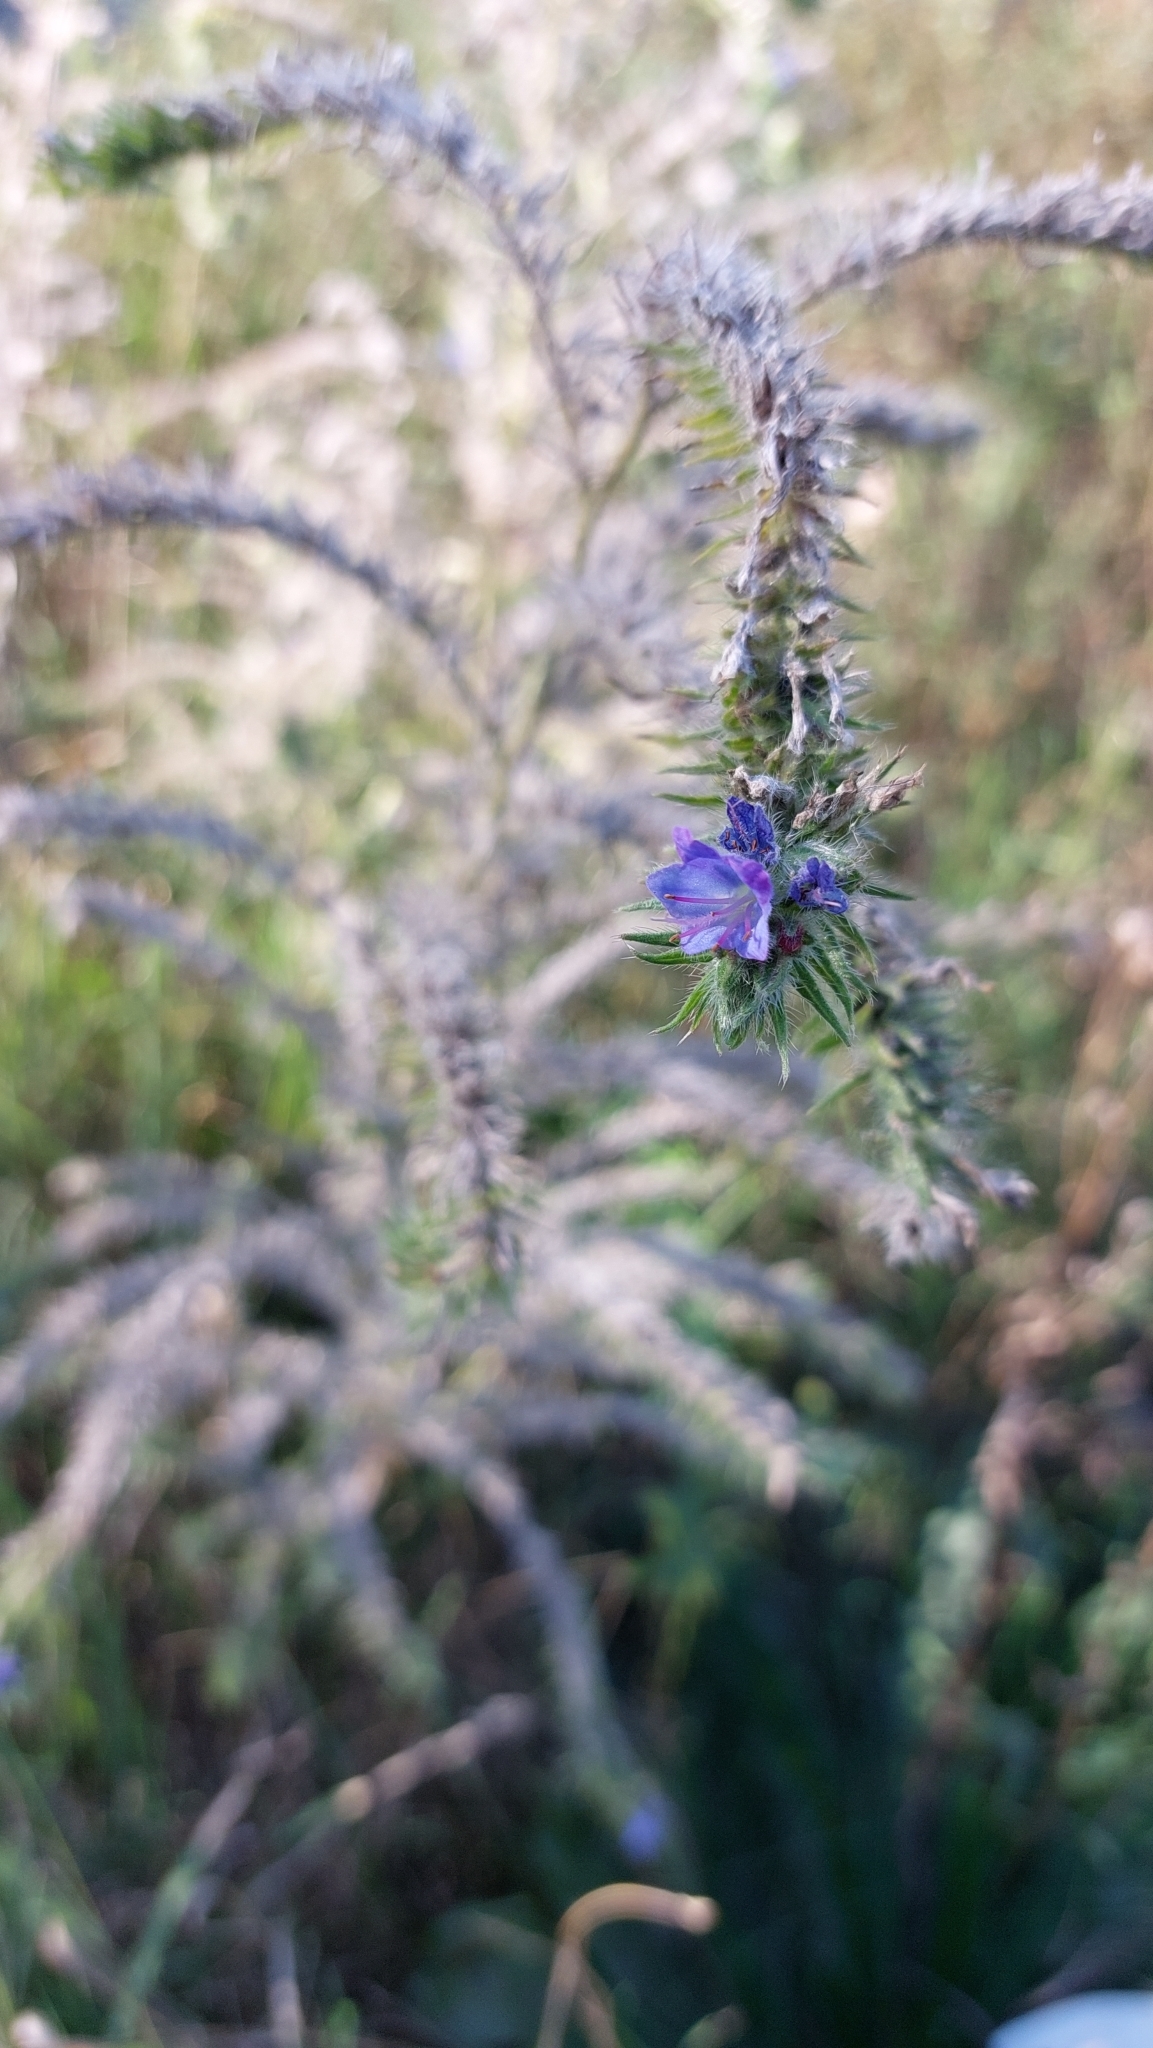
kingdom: Plantae
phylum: Tracheophyta
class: Magnoliopsida
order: Boraginales
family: Boraginaceae
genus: Echium
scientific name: Echium vulgare
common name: Common viper's bugloss
